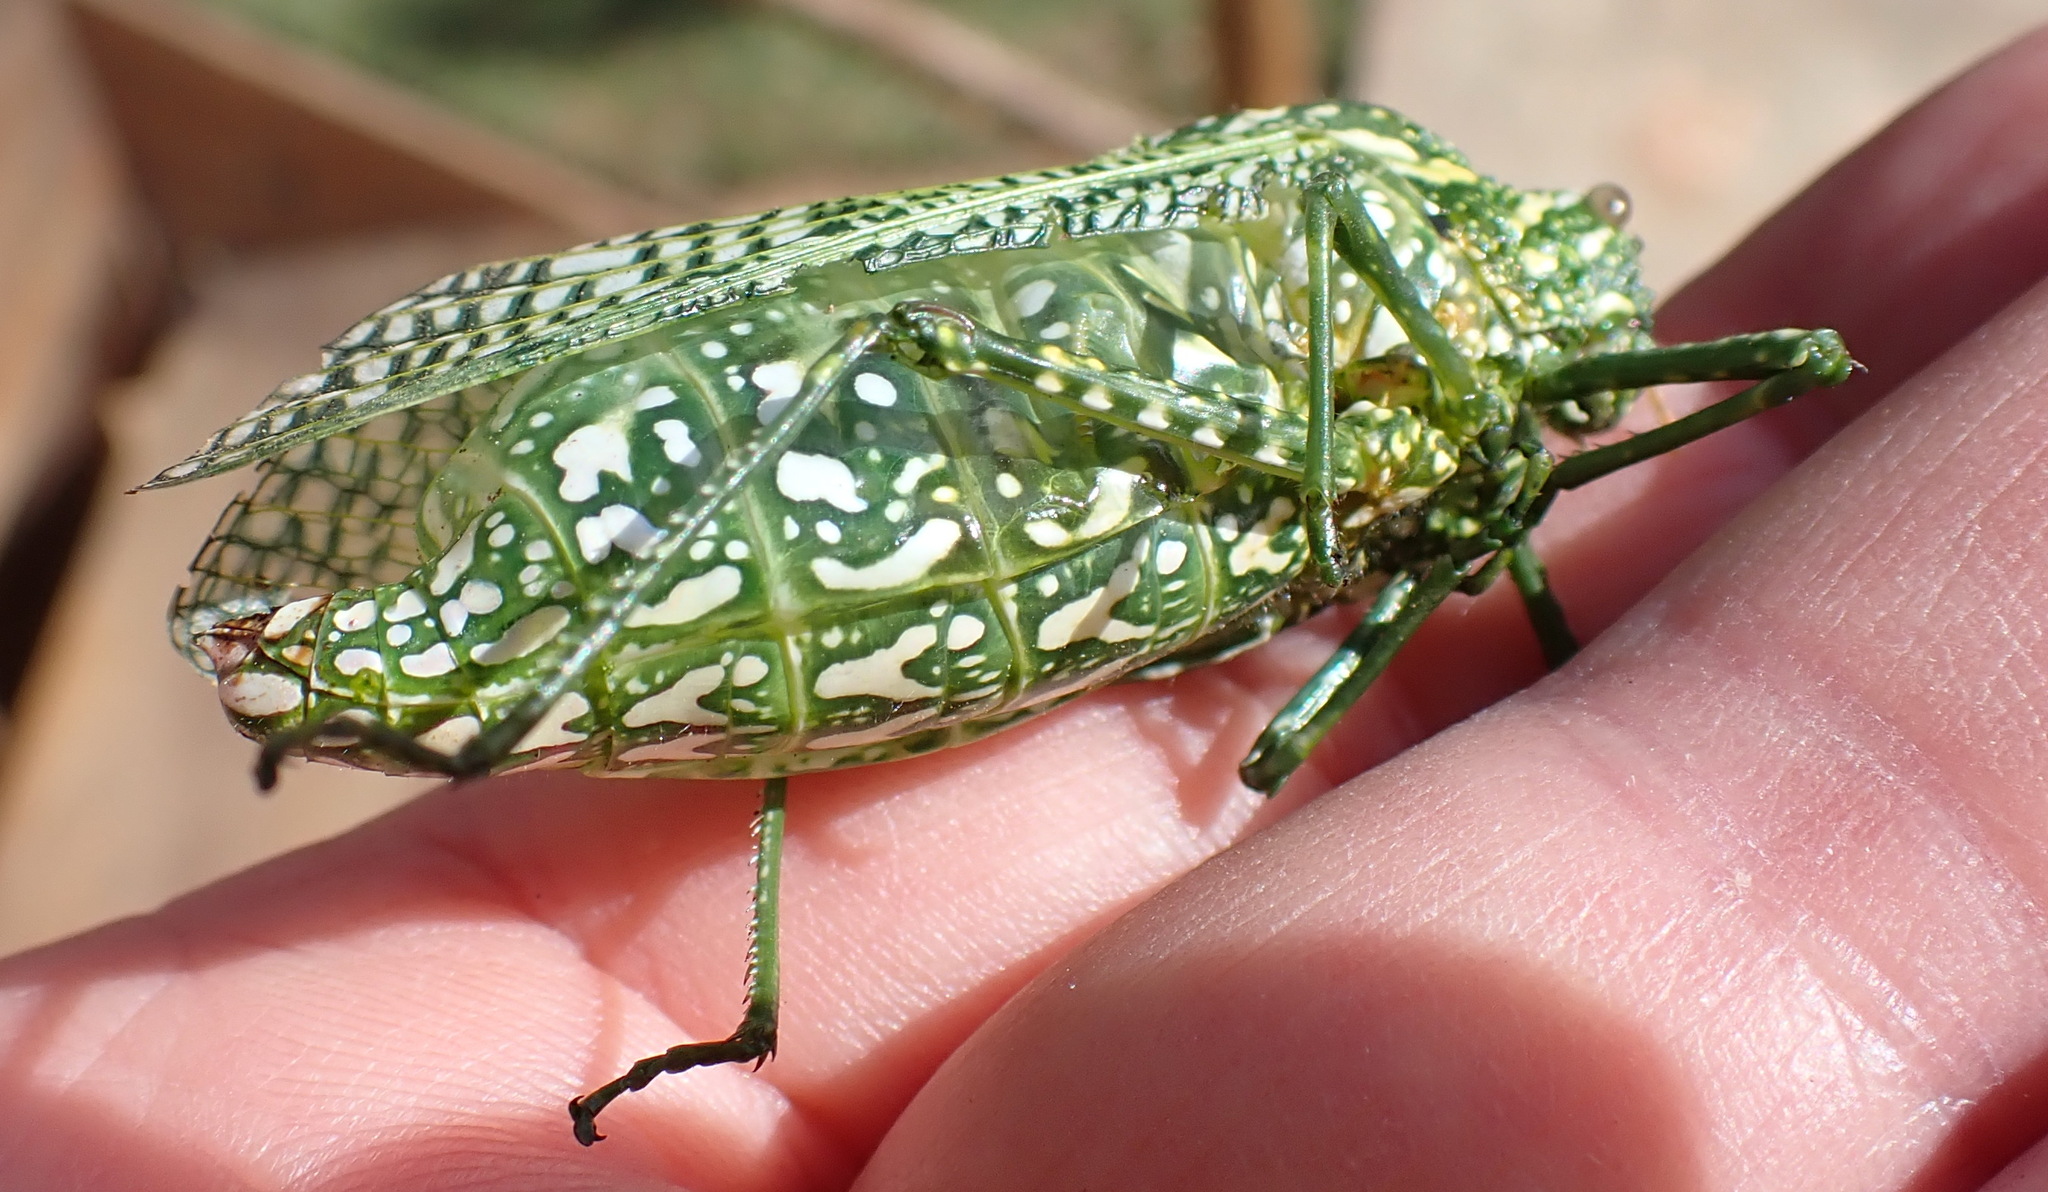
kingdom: Animalia
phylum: Arthropoda
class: Insecta
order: Orthoptera
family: Pneumoridae
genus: Physemacris
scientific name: Physemacris variolosa
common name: Silver spotted bladder grasshopper
